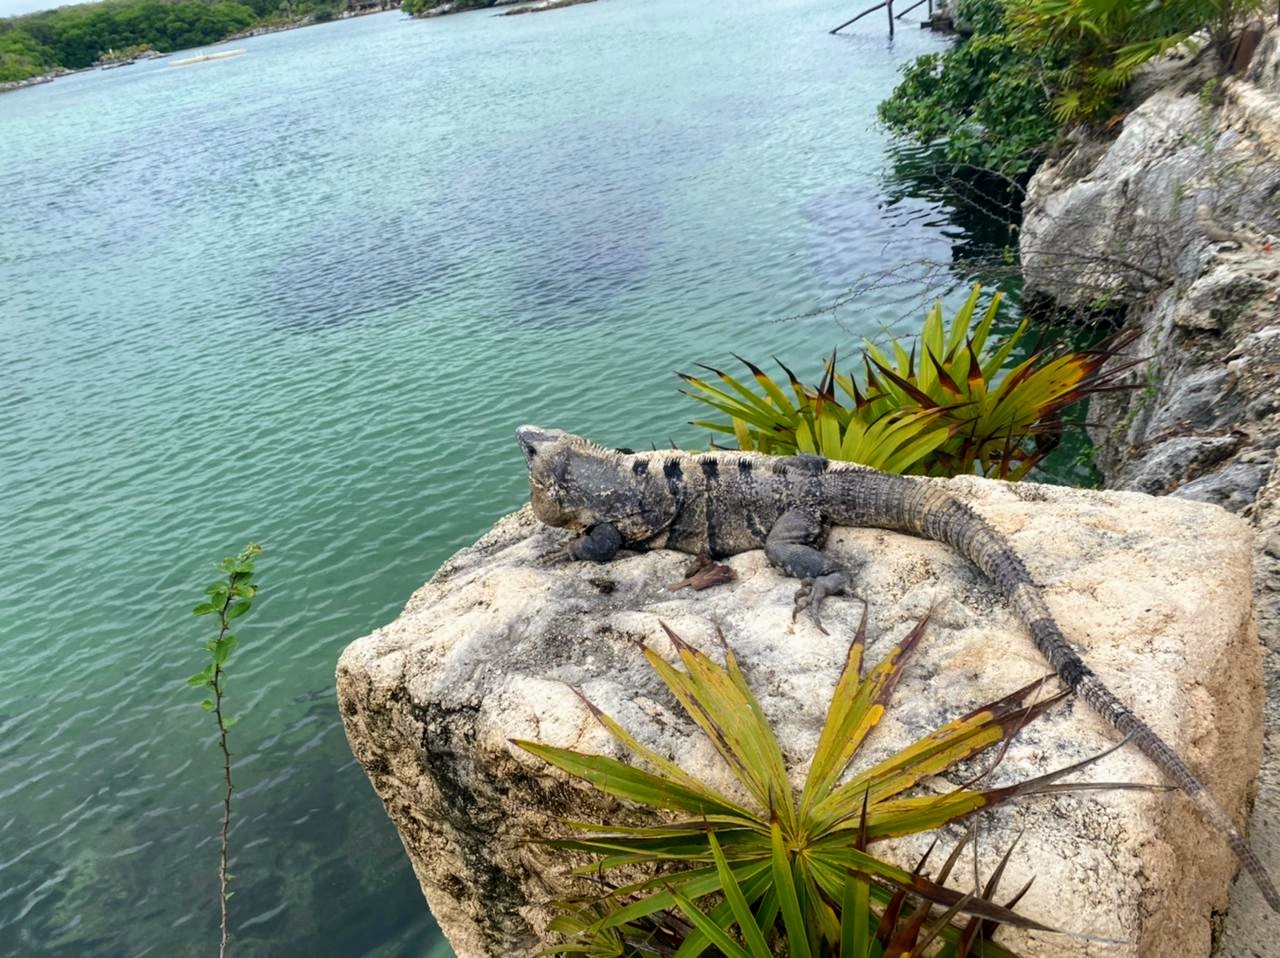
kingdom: Animalia
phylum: Chordata
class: Squamata
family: Iguanidae
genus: Ctenosaura
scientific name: Ctenosaura similis
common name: Black spiny-tailed iguana
